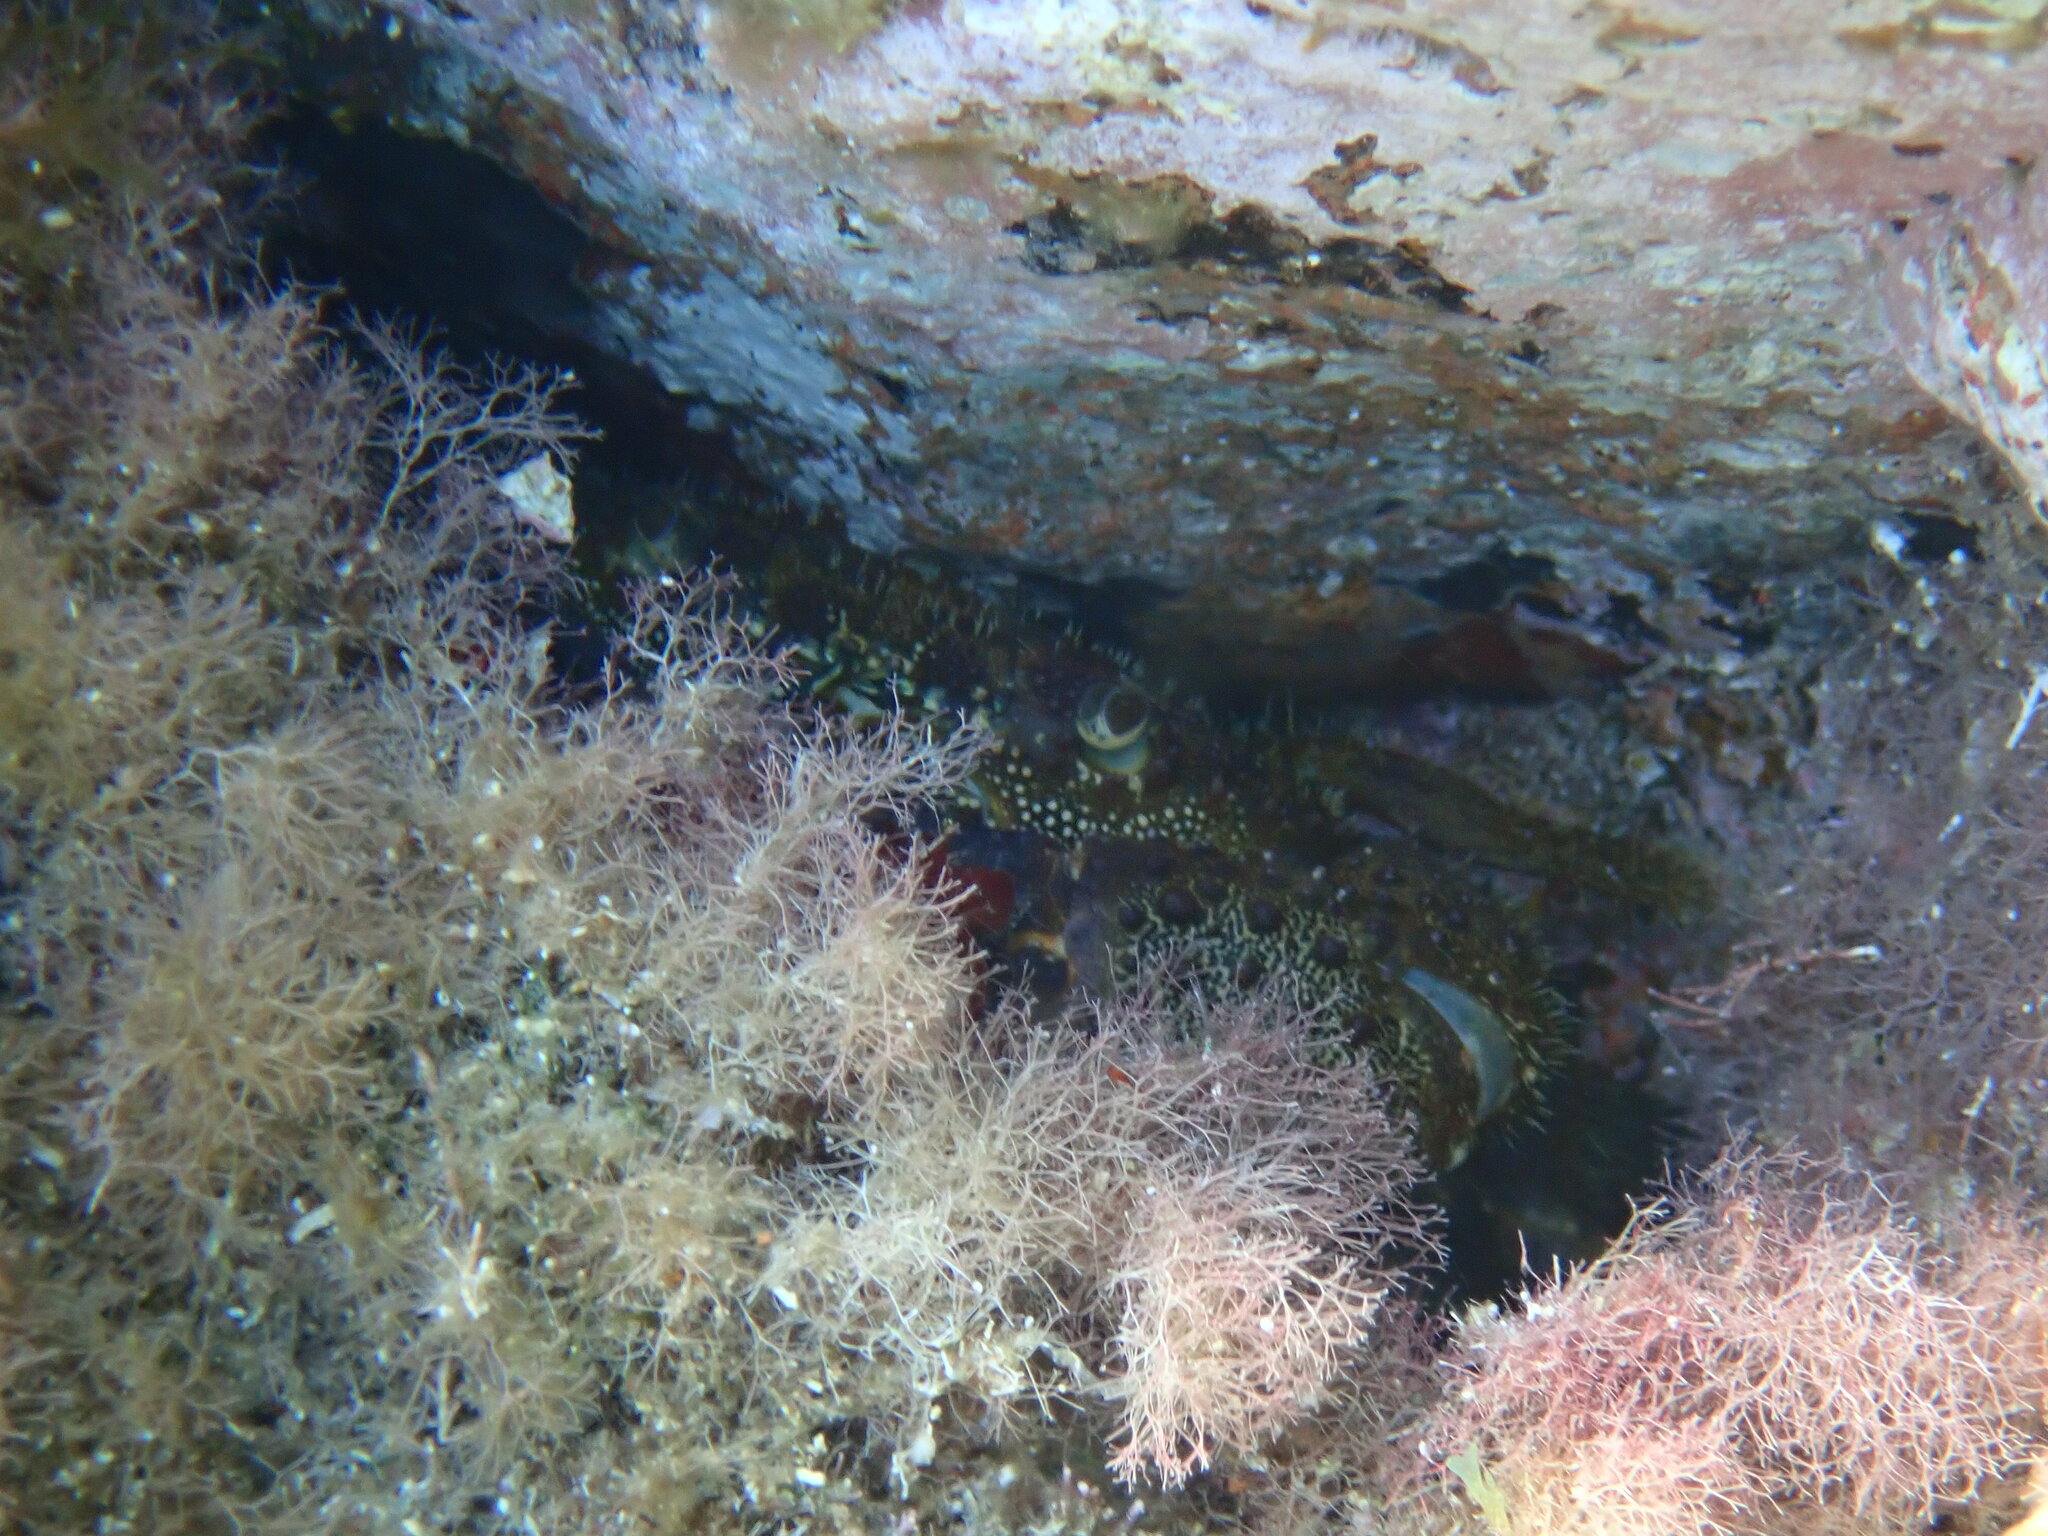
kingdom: Animalia
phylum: Arthropoda
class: Malacostraca
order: Decapoda
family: Eriphiidae
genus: Eriphia
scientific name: Eriphia verrucosa
